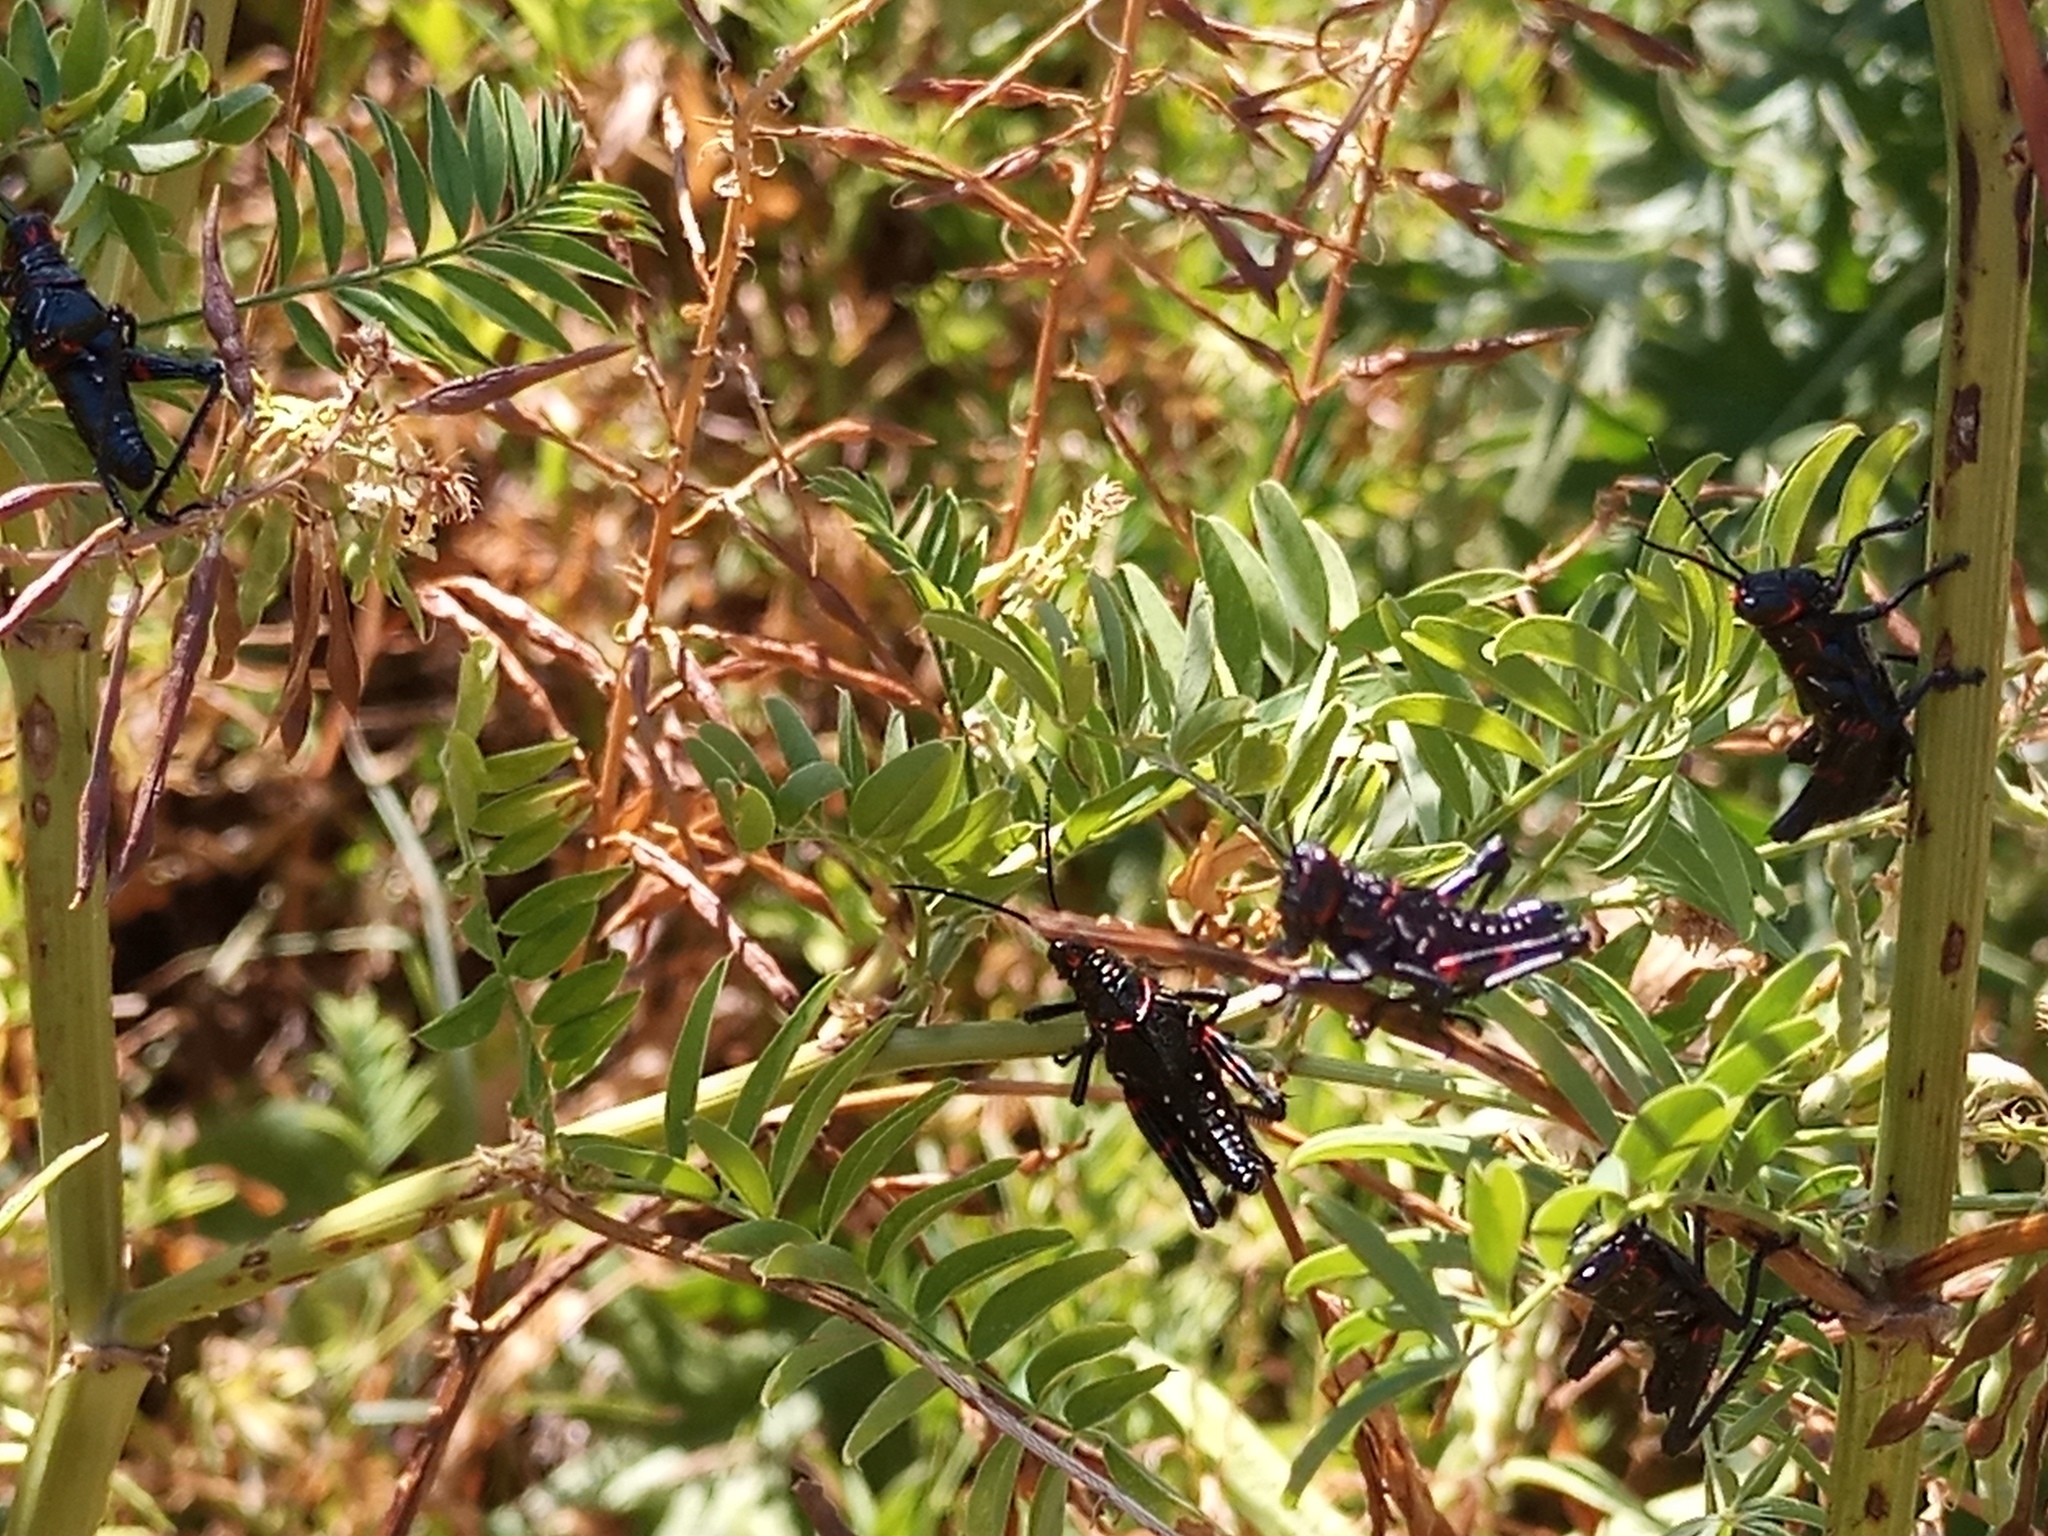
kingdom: Animalia
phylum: Arthropoda
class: Insecta
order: Orthoptera
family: Romaleidae
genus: Chromacris
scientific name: Chromacris speciosa
